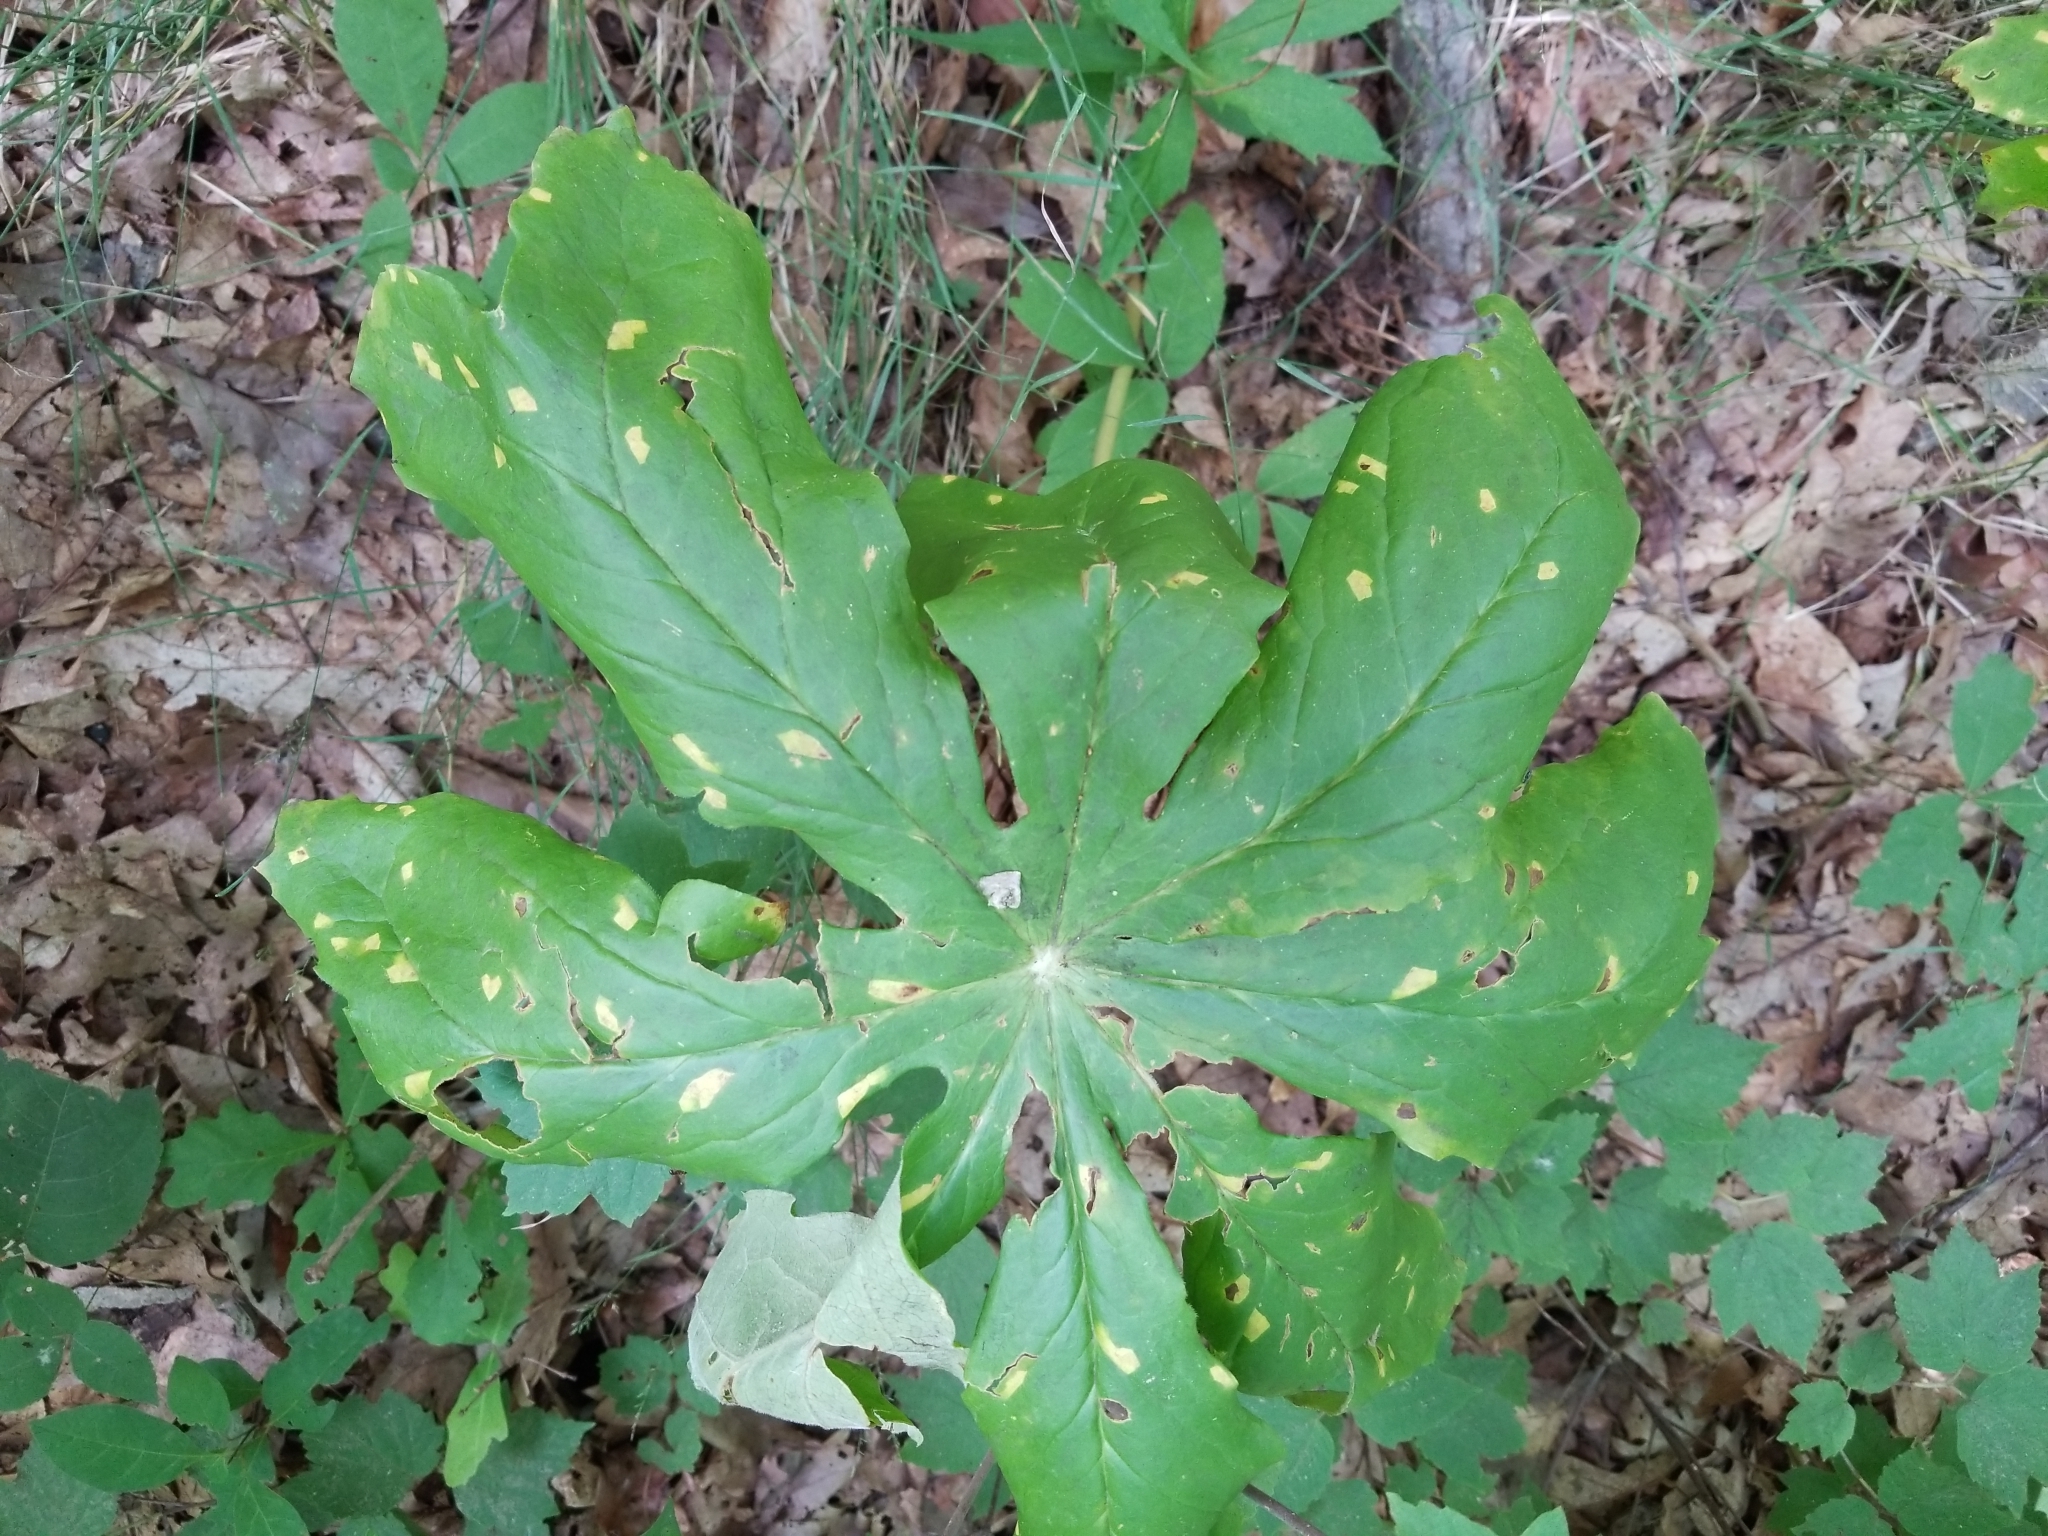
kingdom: Fungi
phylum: Basidiomycota
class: Pucciniomycetes
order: Pucciniales
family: Pucciniaceae
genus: Puccinia
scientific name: Puccinia podophylli
